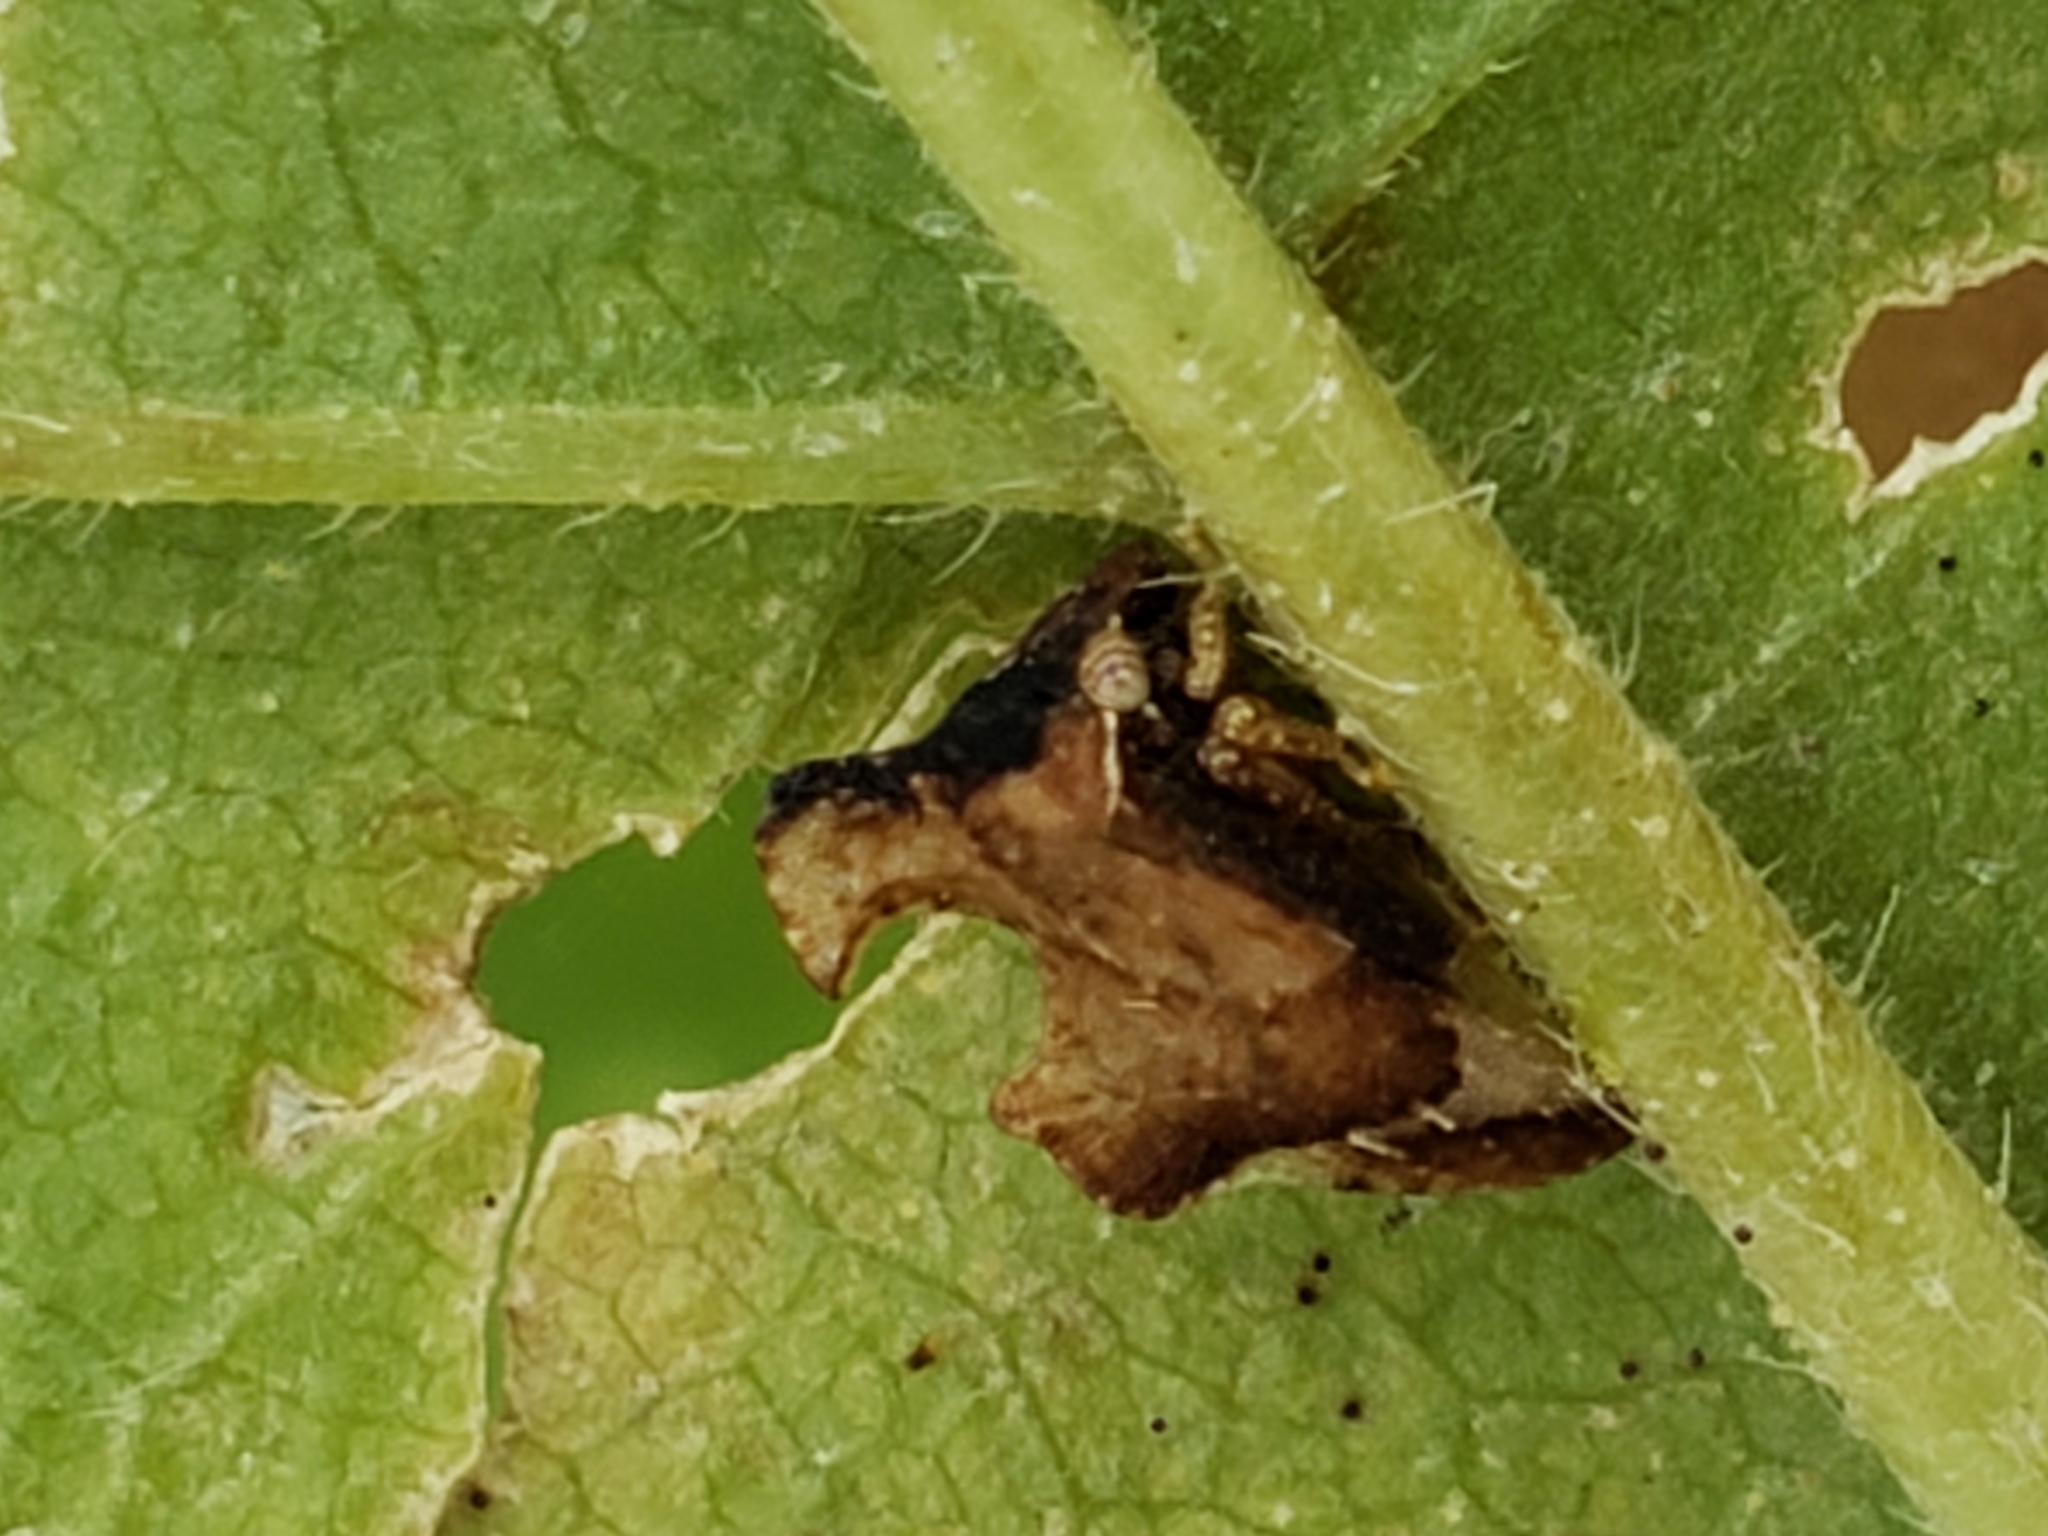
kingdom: Animalia
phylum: Arthropoda
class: Insecta
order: Hemiptera
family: Membracidae
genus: Entylia
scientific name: Entylia carinata
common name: Keeled treehopper
